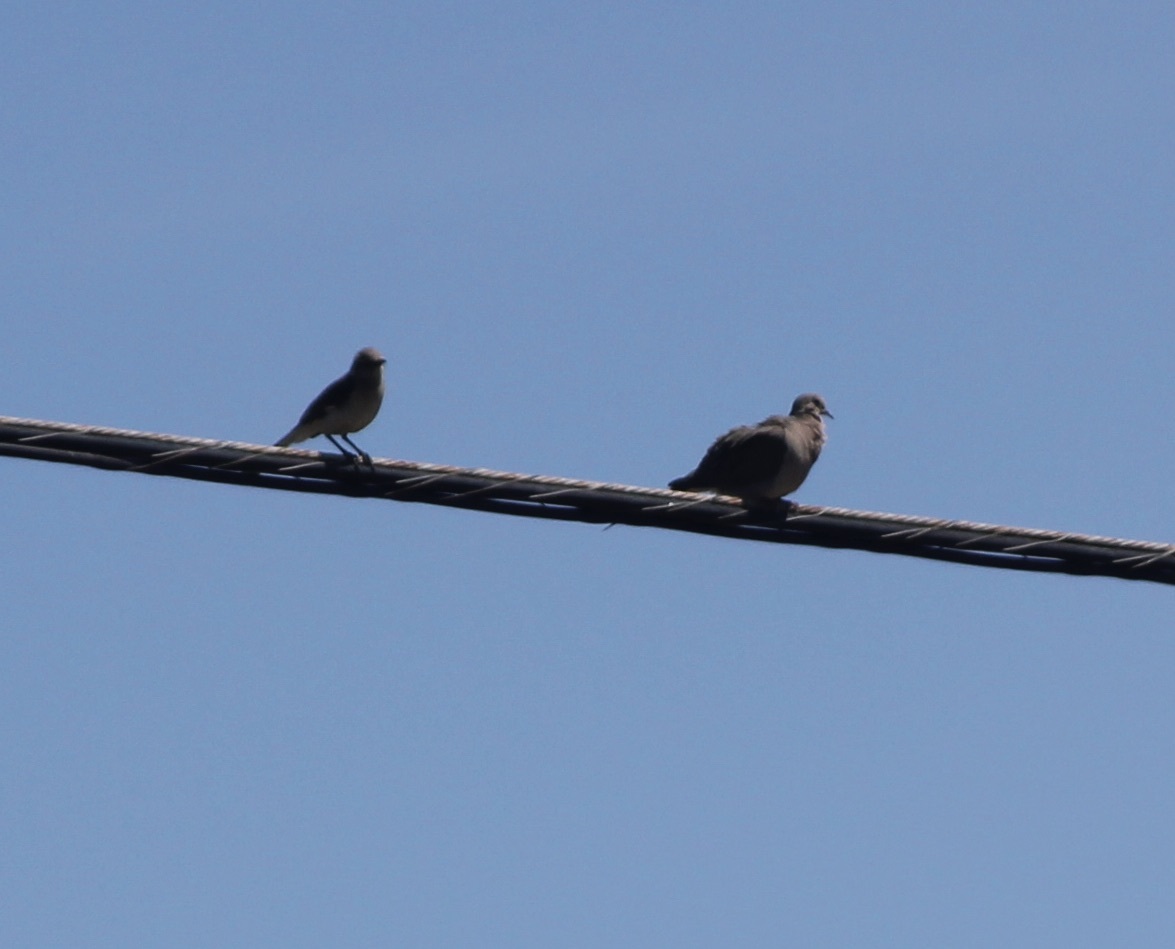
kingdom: Animalia
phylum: Chordata
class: Aves
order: Columbiformes
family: Columbidae
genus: Zenaida
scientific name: Zenaida macroura
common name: Mourning dove
